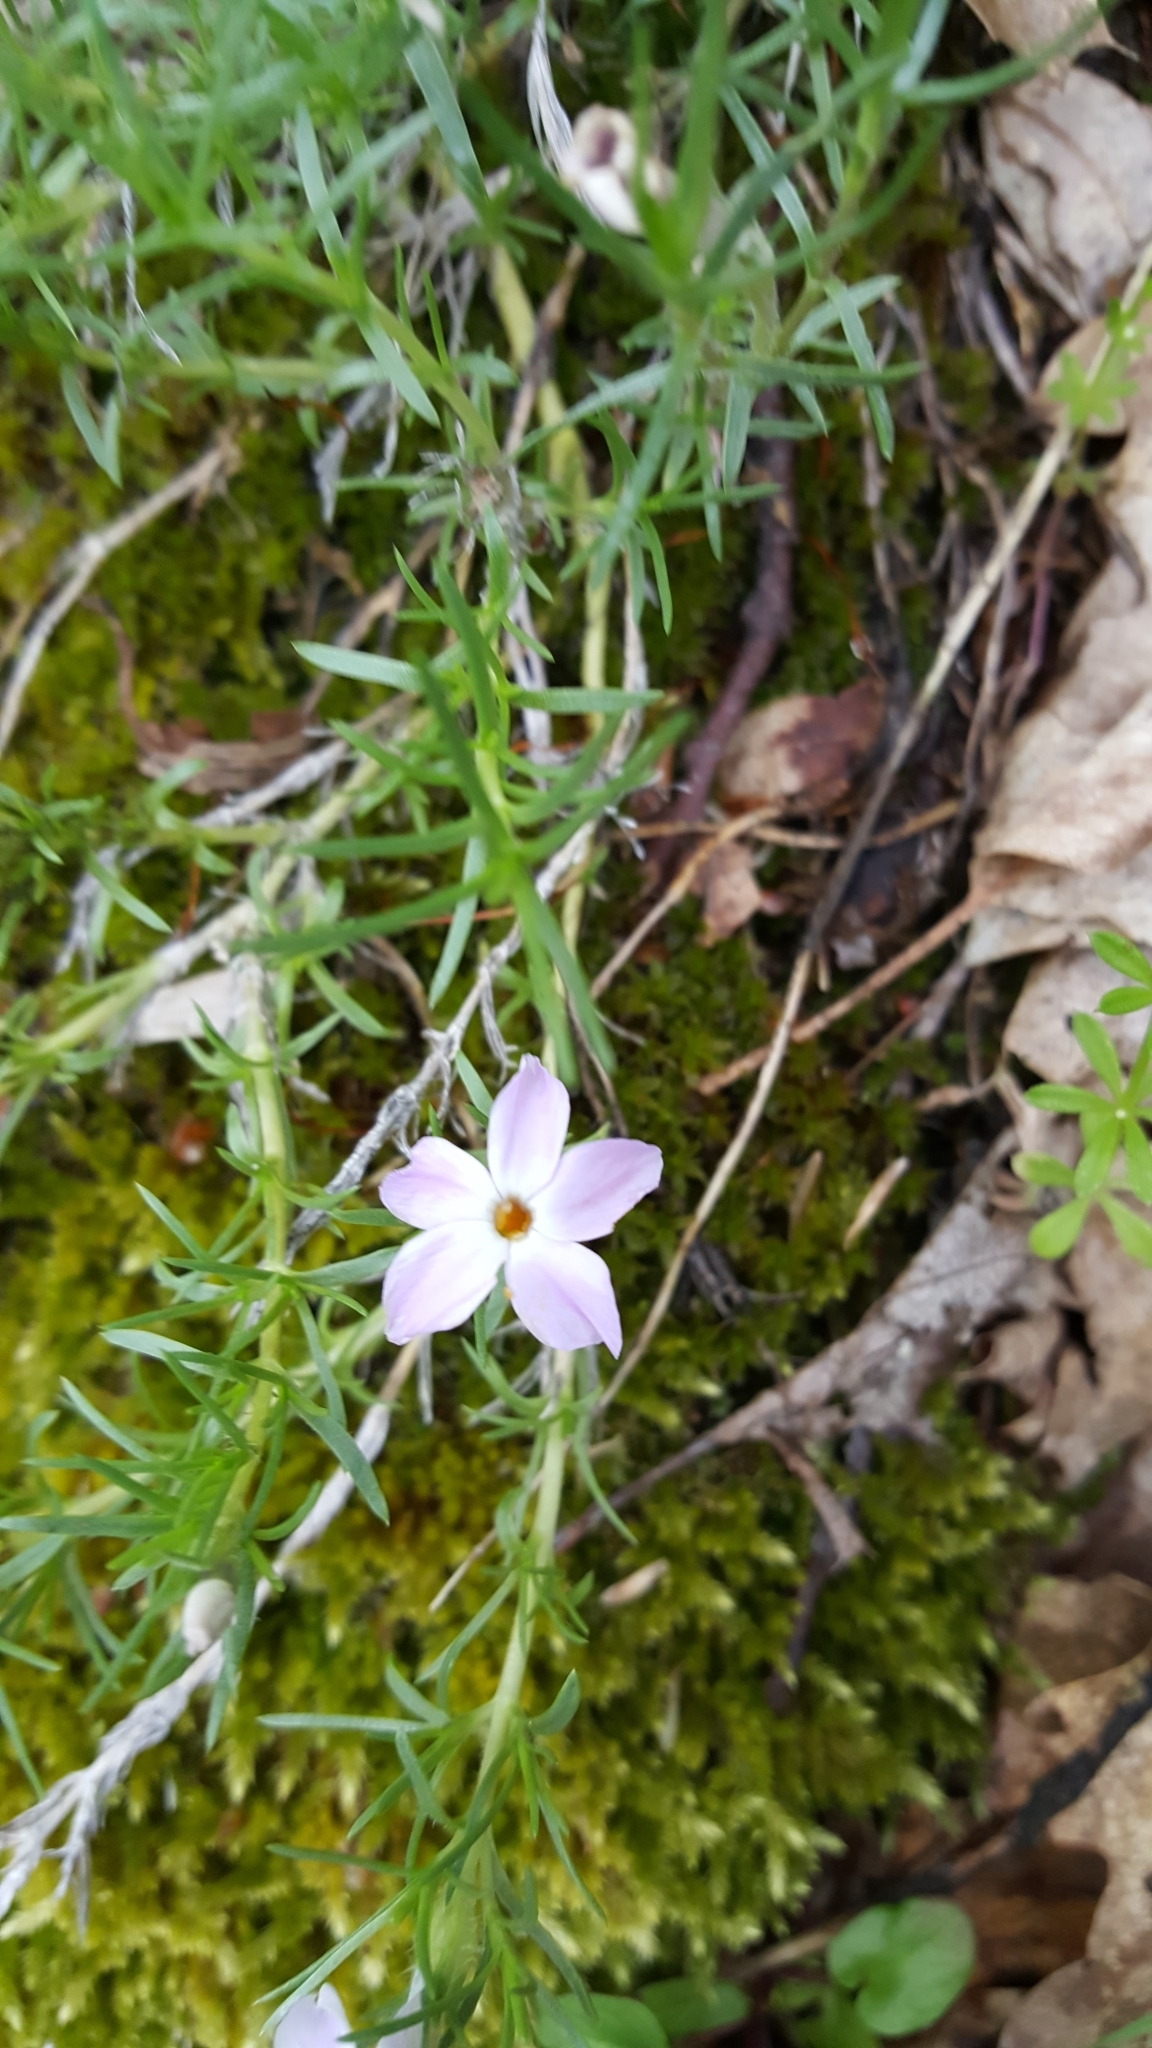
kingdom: Plantae
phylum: Tracheophyta
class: Magnoliopsida
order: Ericales
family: Polemoniaceae
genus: Phlox
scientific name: Phlox diffusa
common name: Mat phlox
